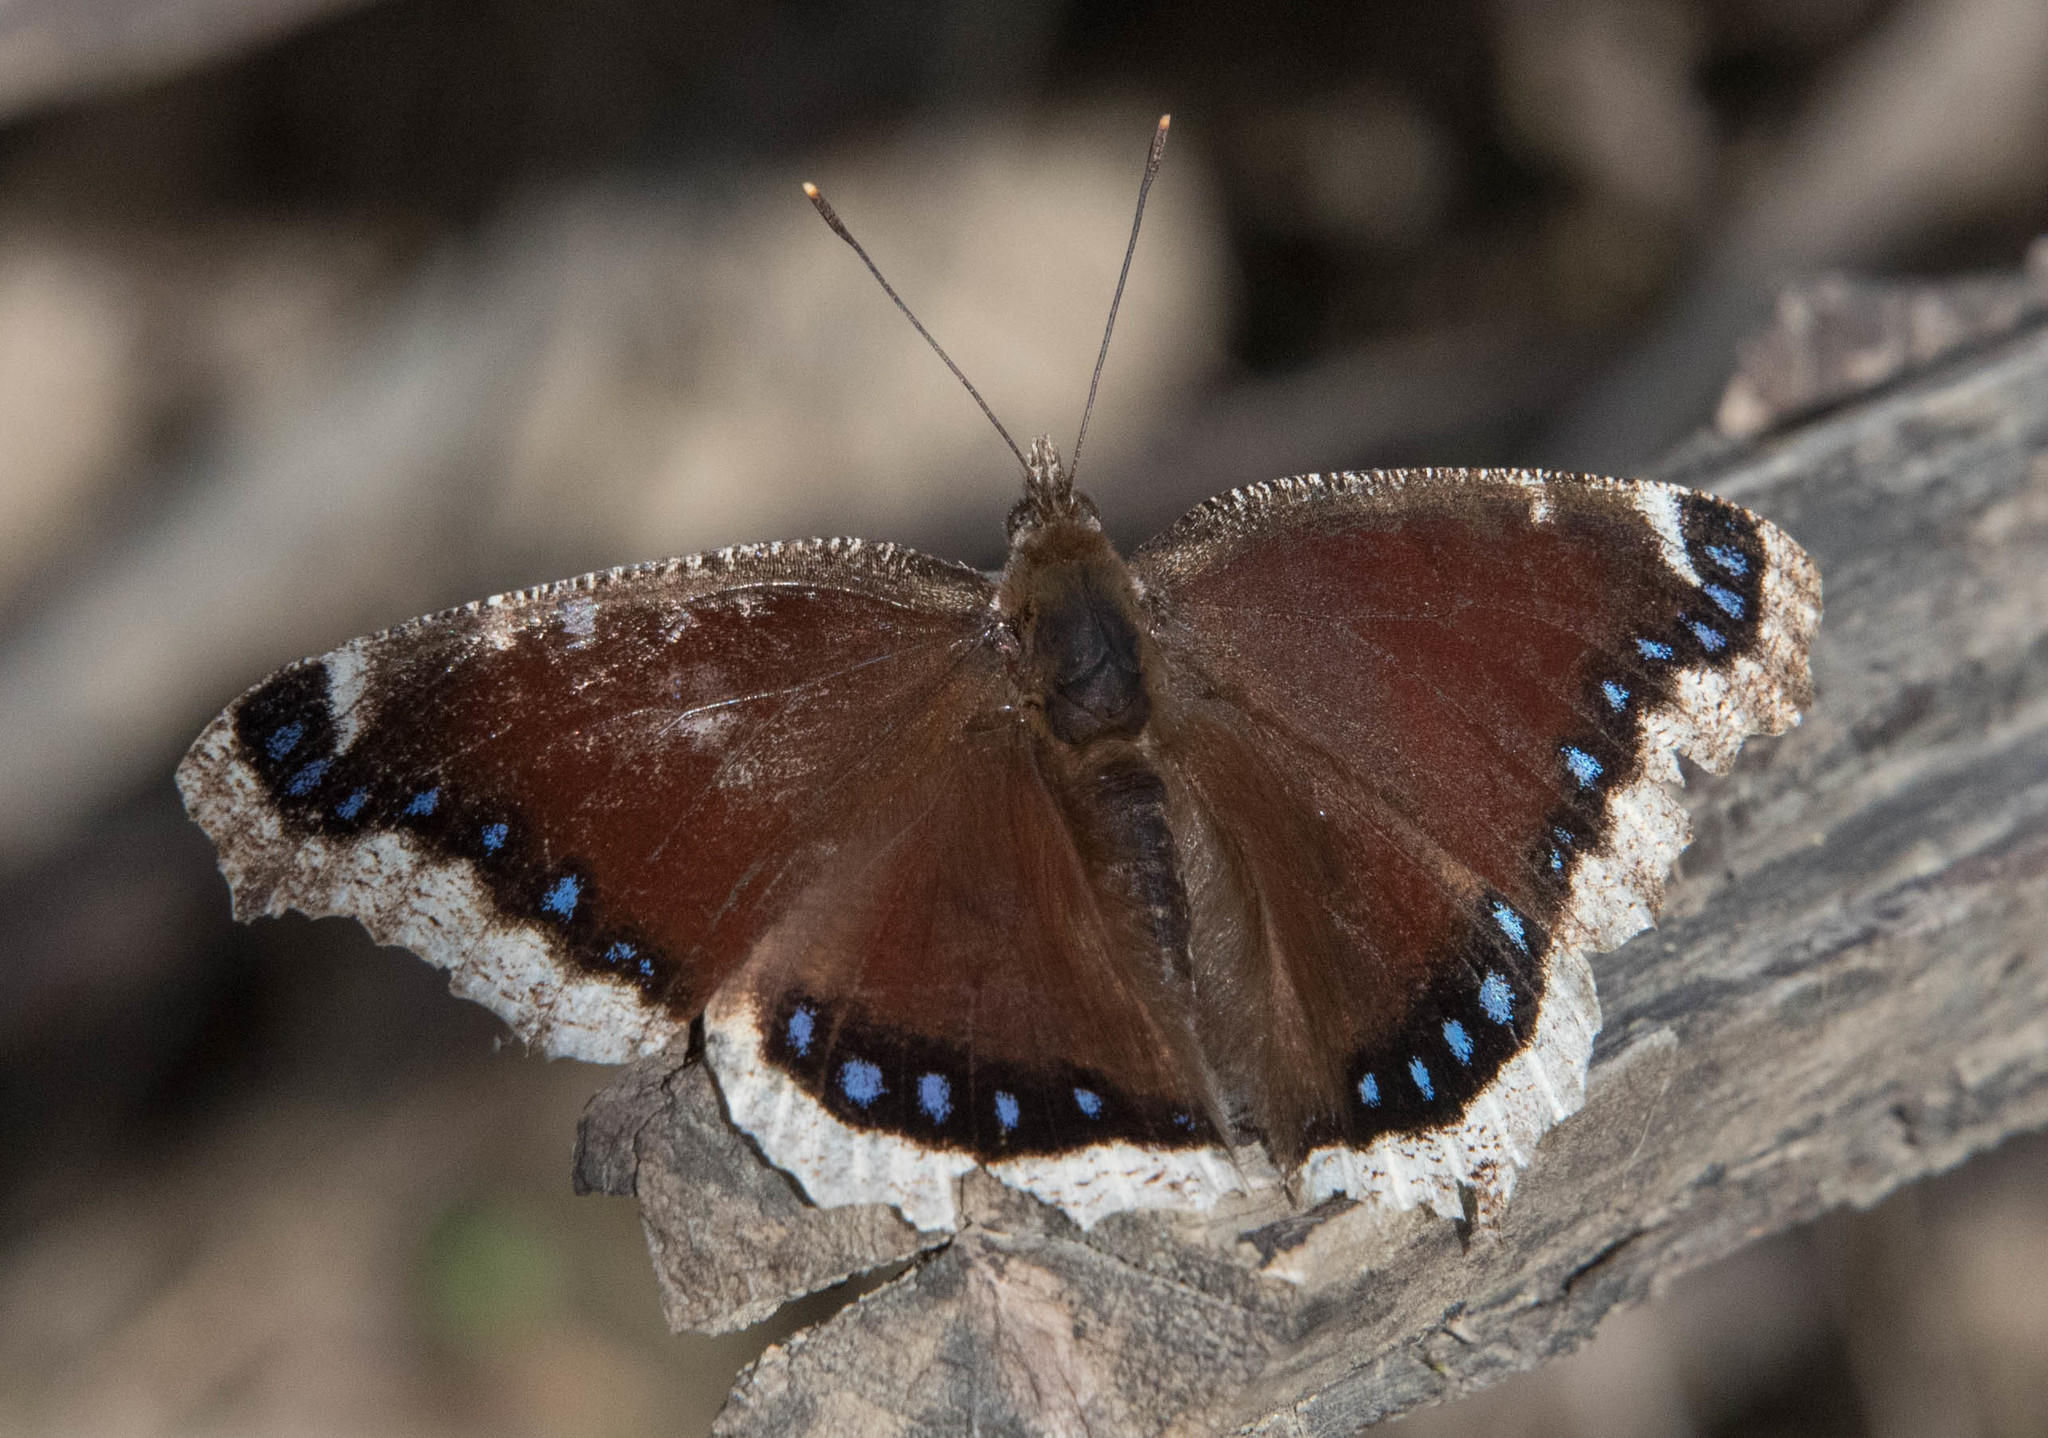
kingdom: Animalia
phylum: Arthropoda
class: Insecta
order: Lepidoptera
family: Nymphalidae
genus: Nymphalis
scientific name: Nymphalis antiopa
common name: Camberwell beauty
